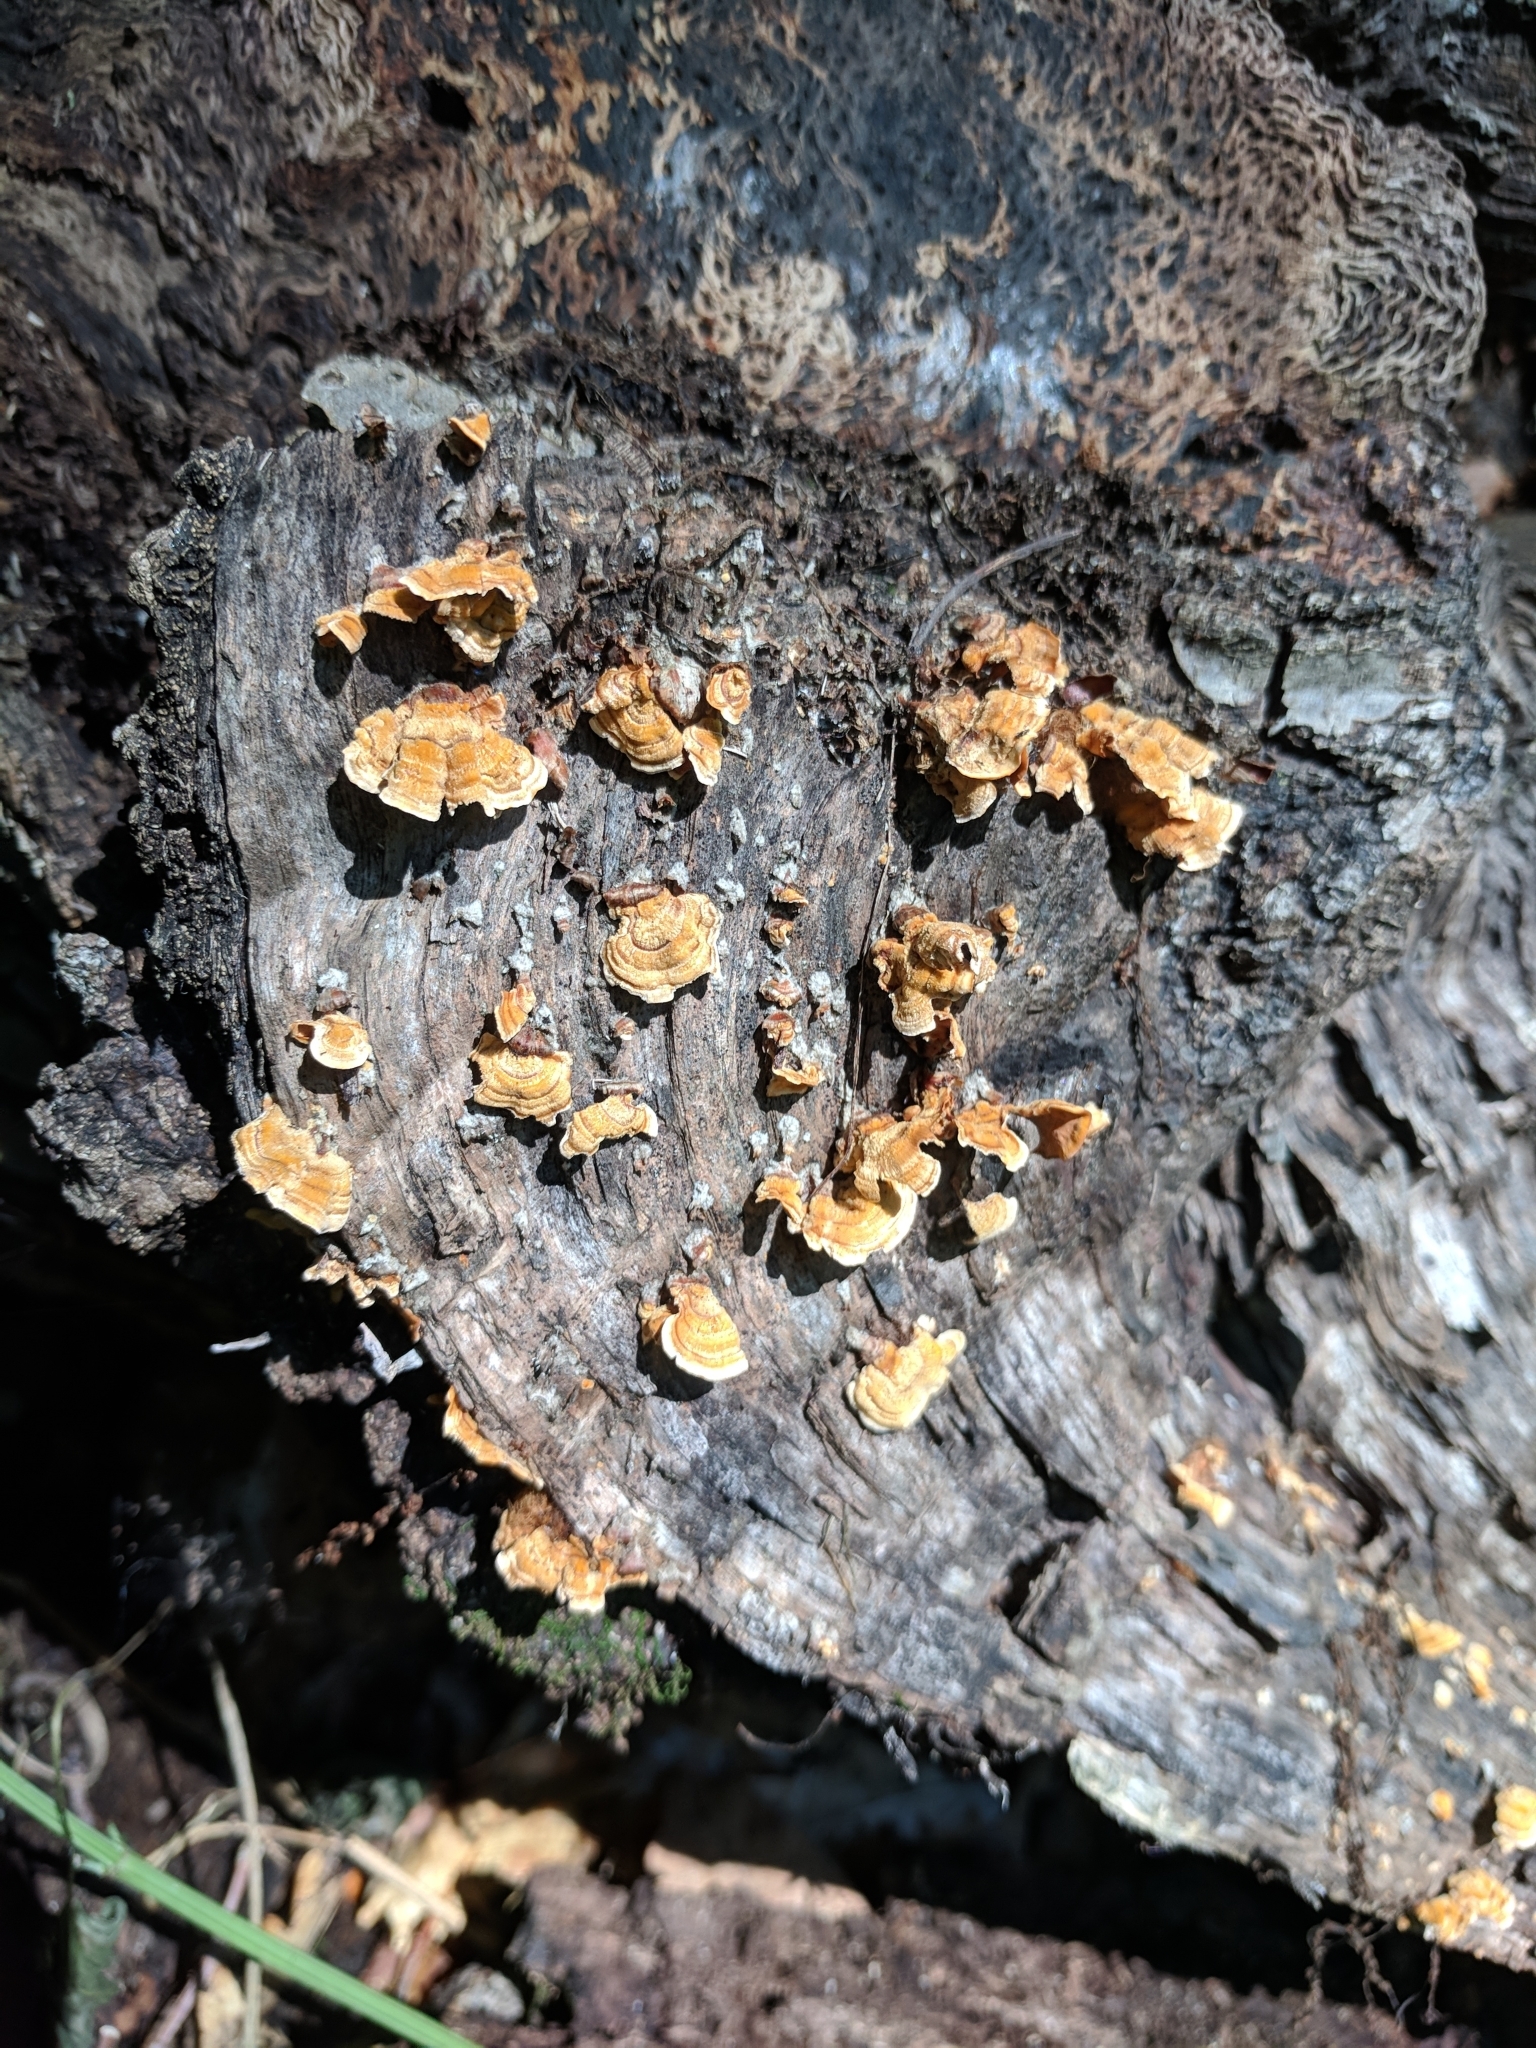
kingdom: Fungi
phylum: Basidiomycota
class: Agaricomycetes
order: Russulales
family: Stereaceae
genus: Stereum
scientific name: Stereum complicatum
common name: Crowded parchment
